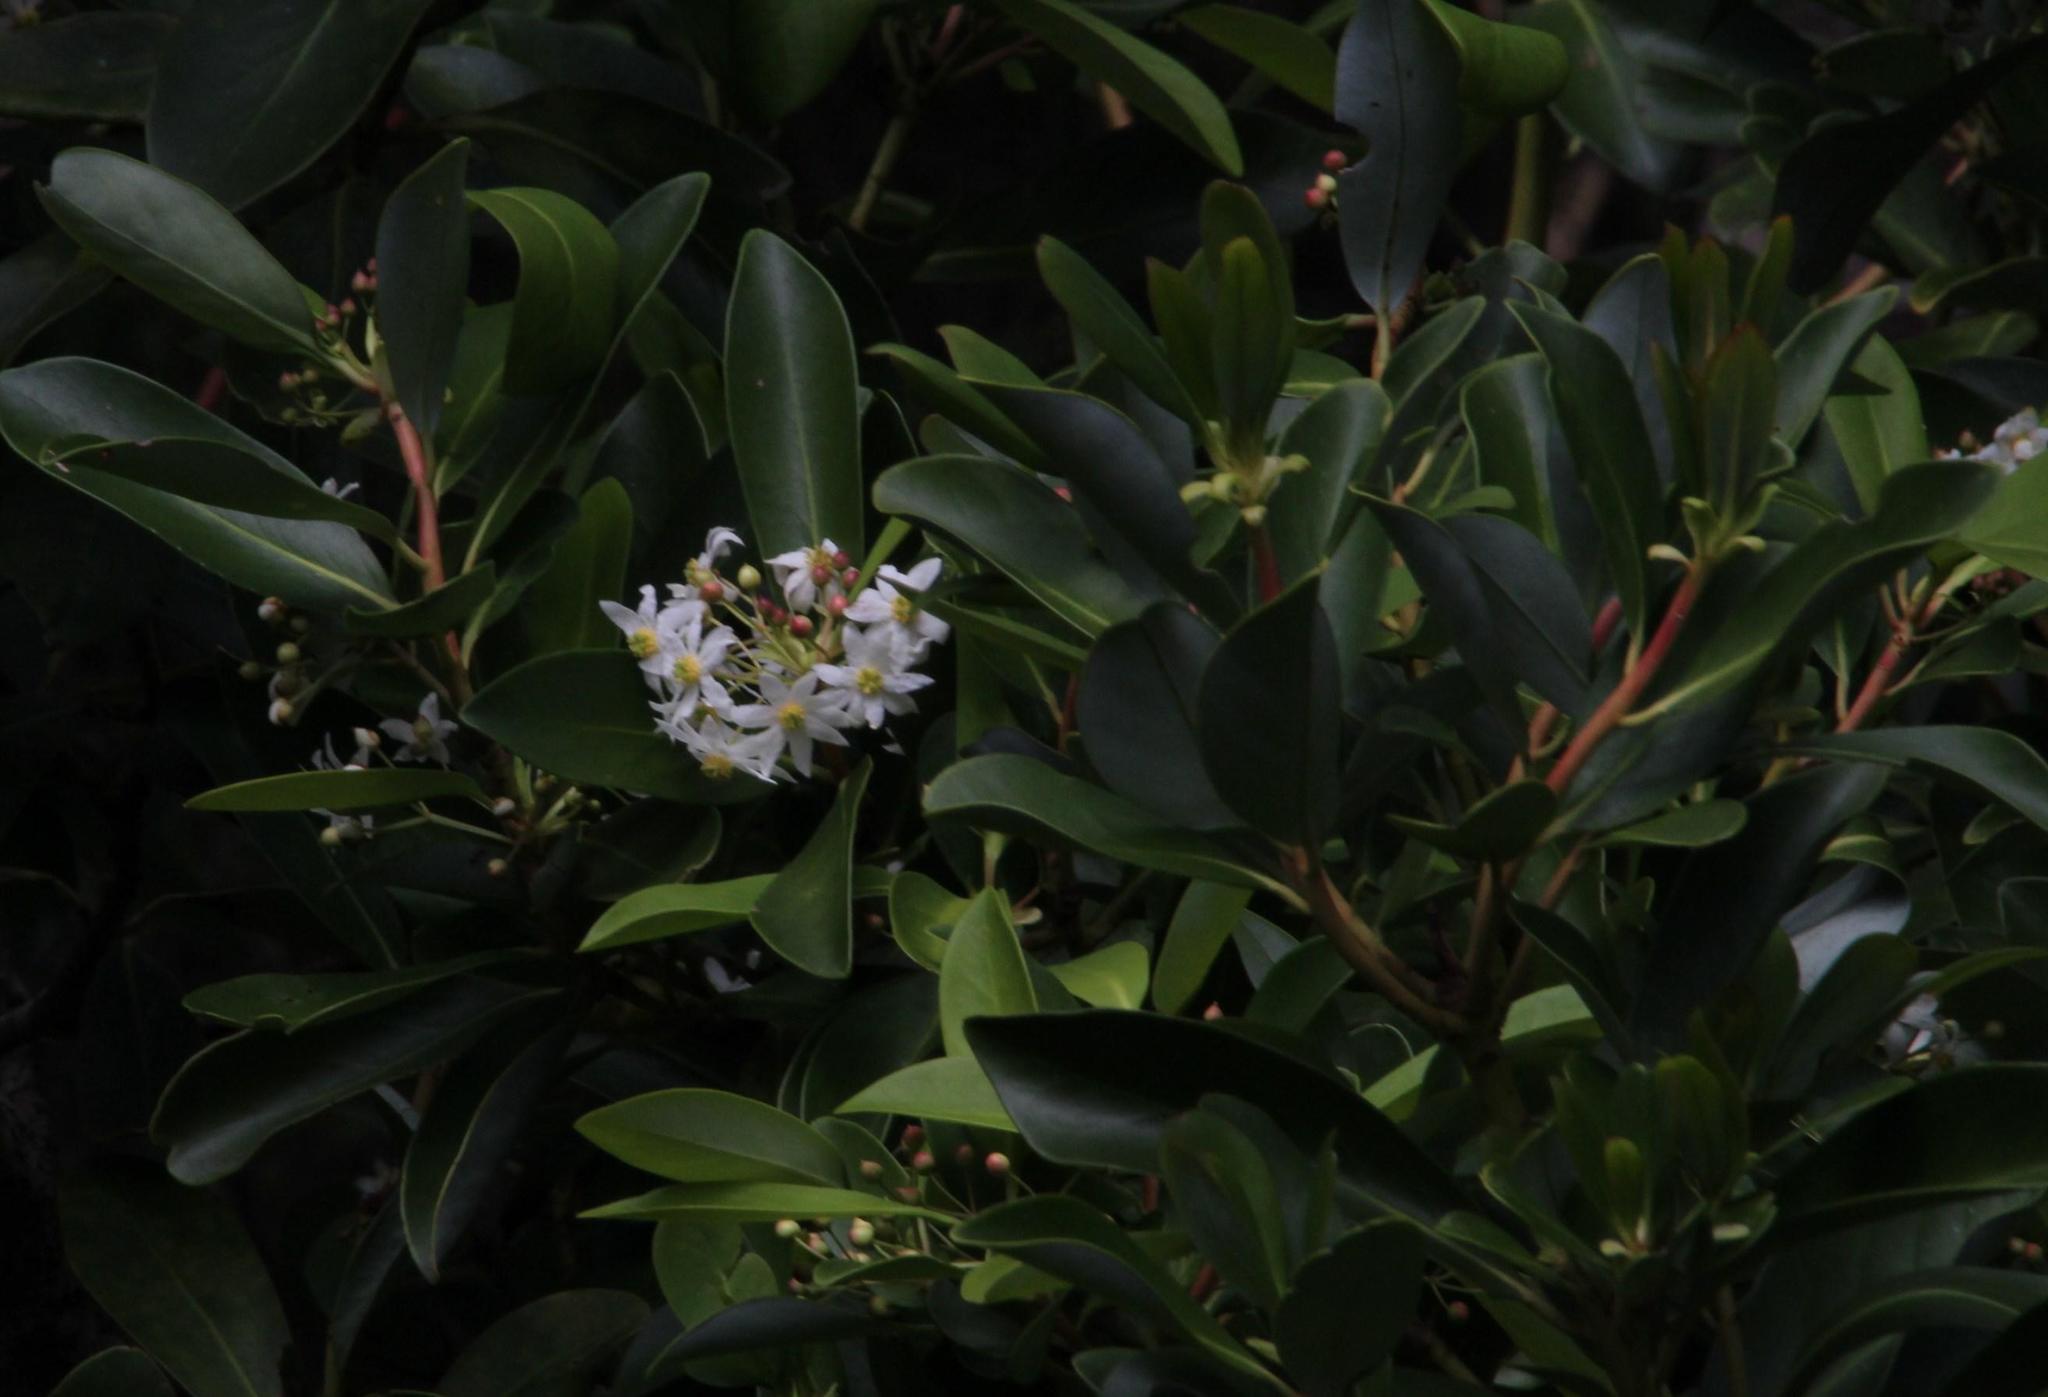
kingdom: Plantae
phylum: Tracheophyta
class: Magnoliopsida
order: Canellales
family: Winteraceae
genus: Drimys
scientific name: Drimys winteri
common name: Winter's-bark
